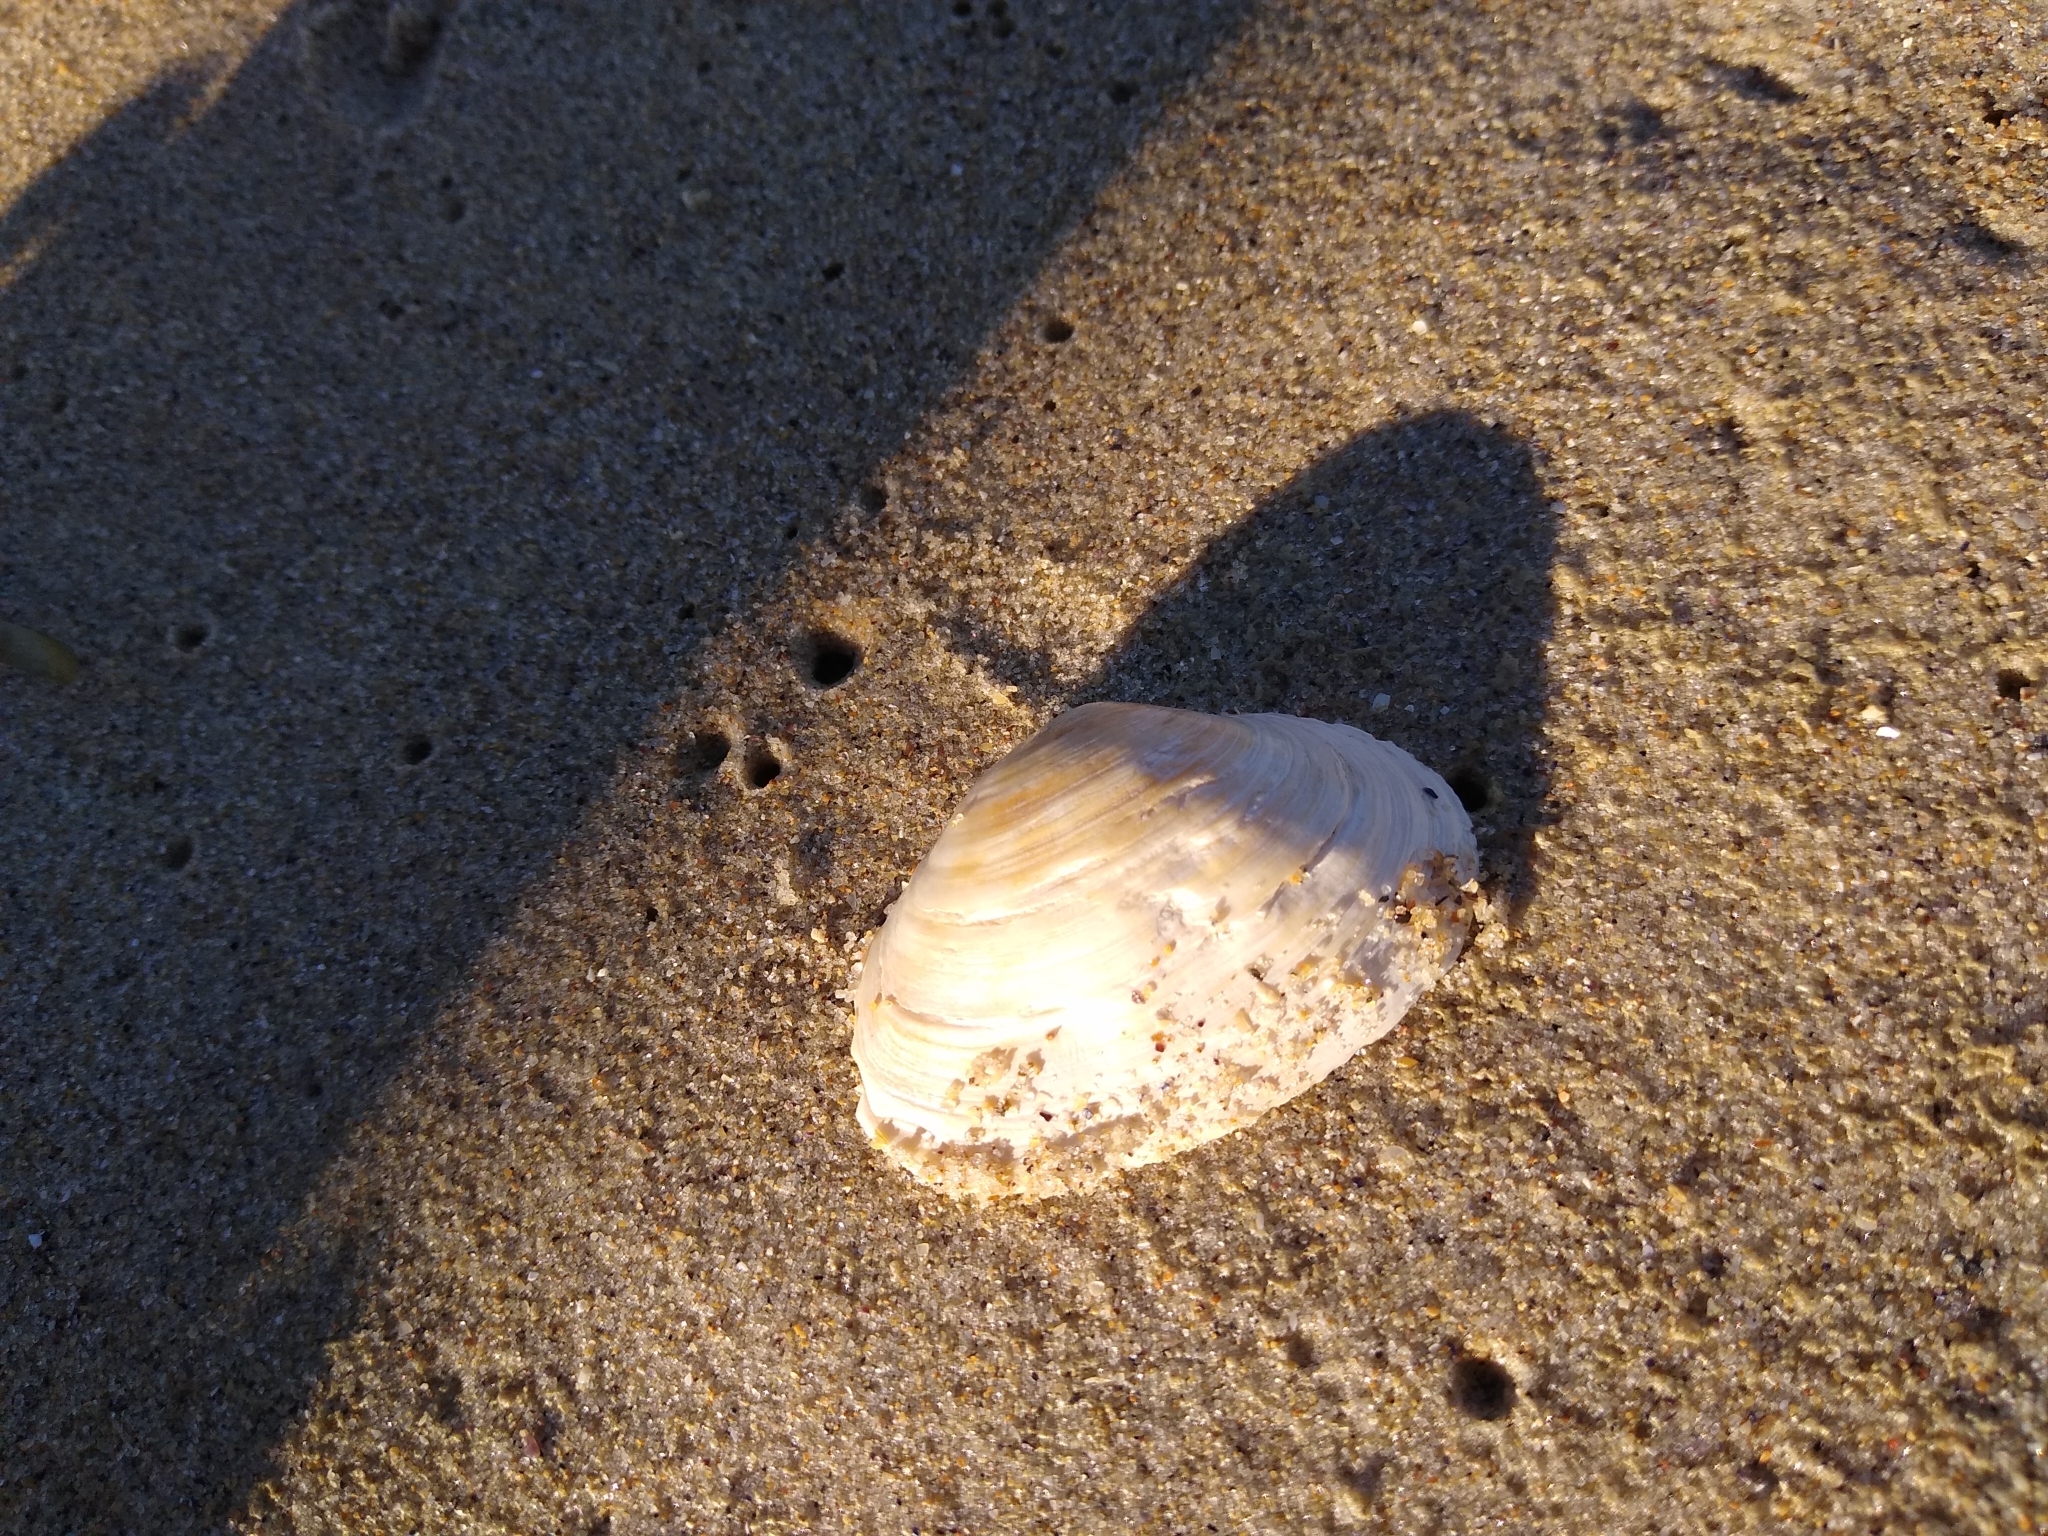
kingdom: Animalia
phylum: Mollusca
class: Bivalvia
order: Myida
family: Myidae
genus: Mya
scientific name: Mya arenaria
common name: Soft-shelled clam
